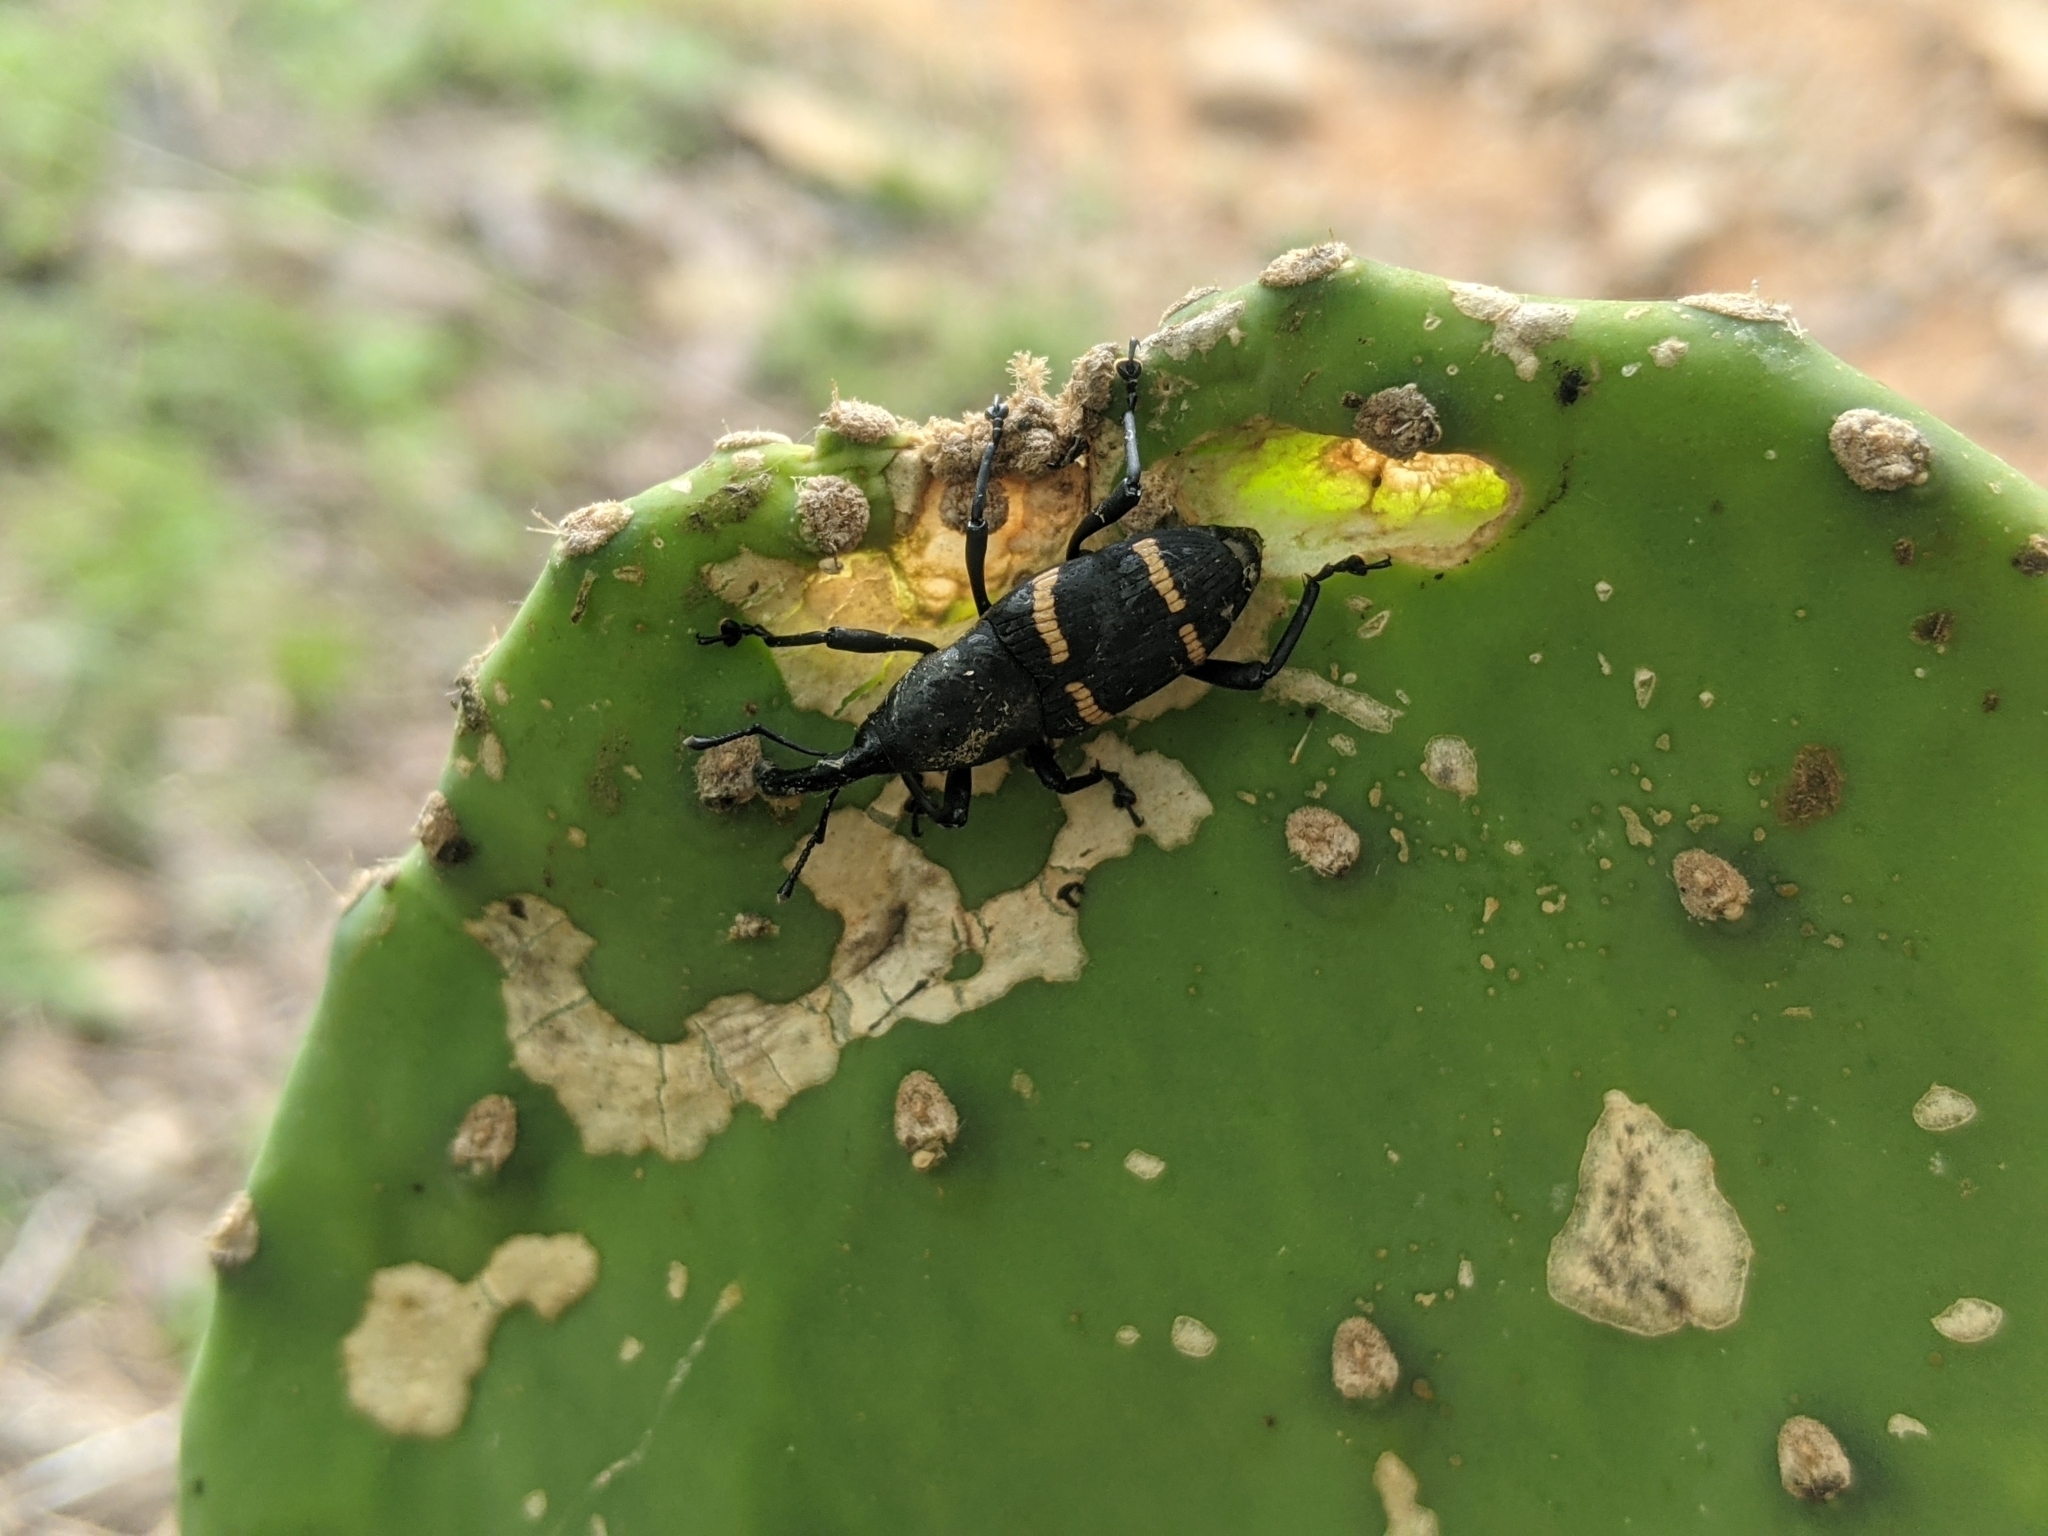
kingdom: Animalia
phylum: Arthropoda
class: Insecta
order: Coleoptera
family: Dryophthoridae
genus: Cactophagus
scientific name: Cactophagus spinolae
